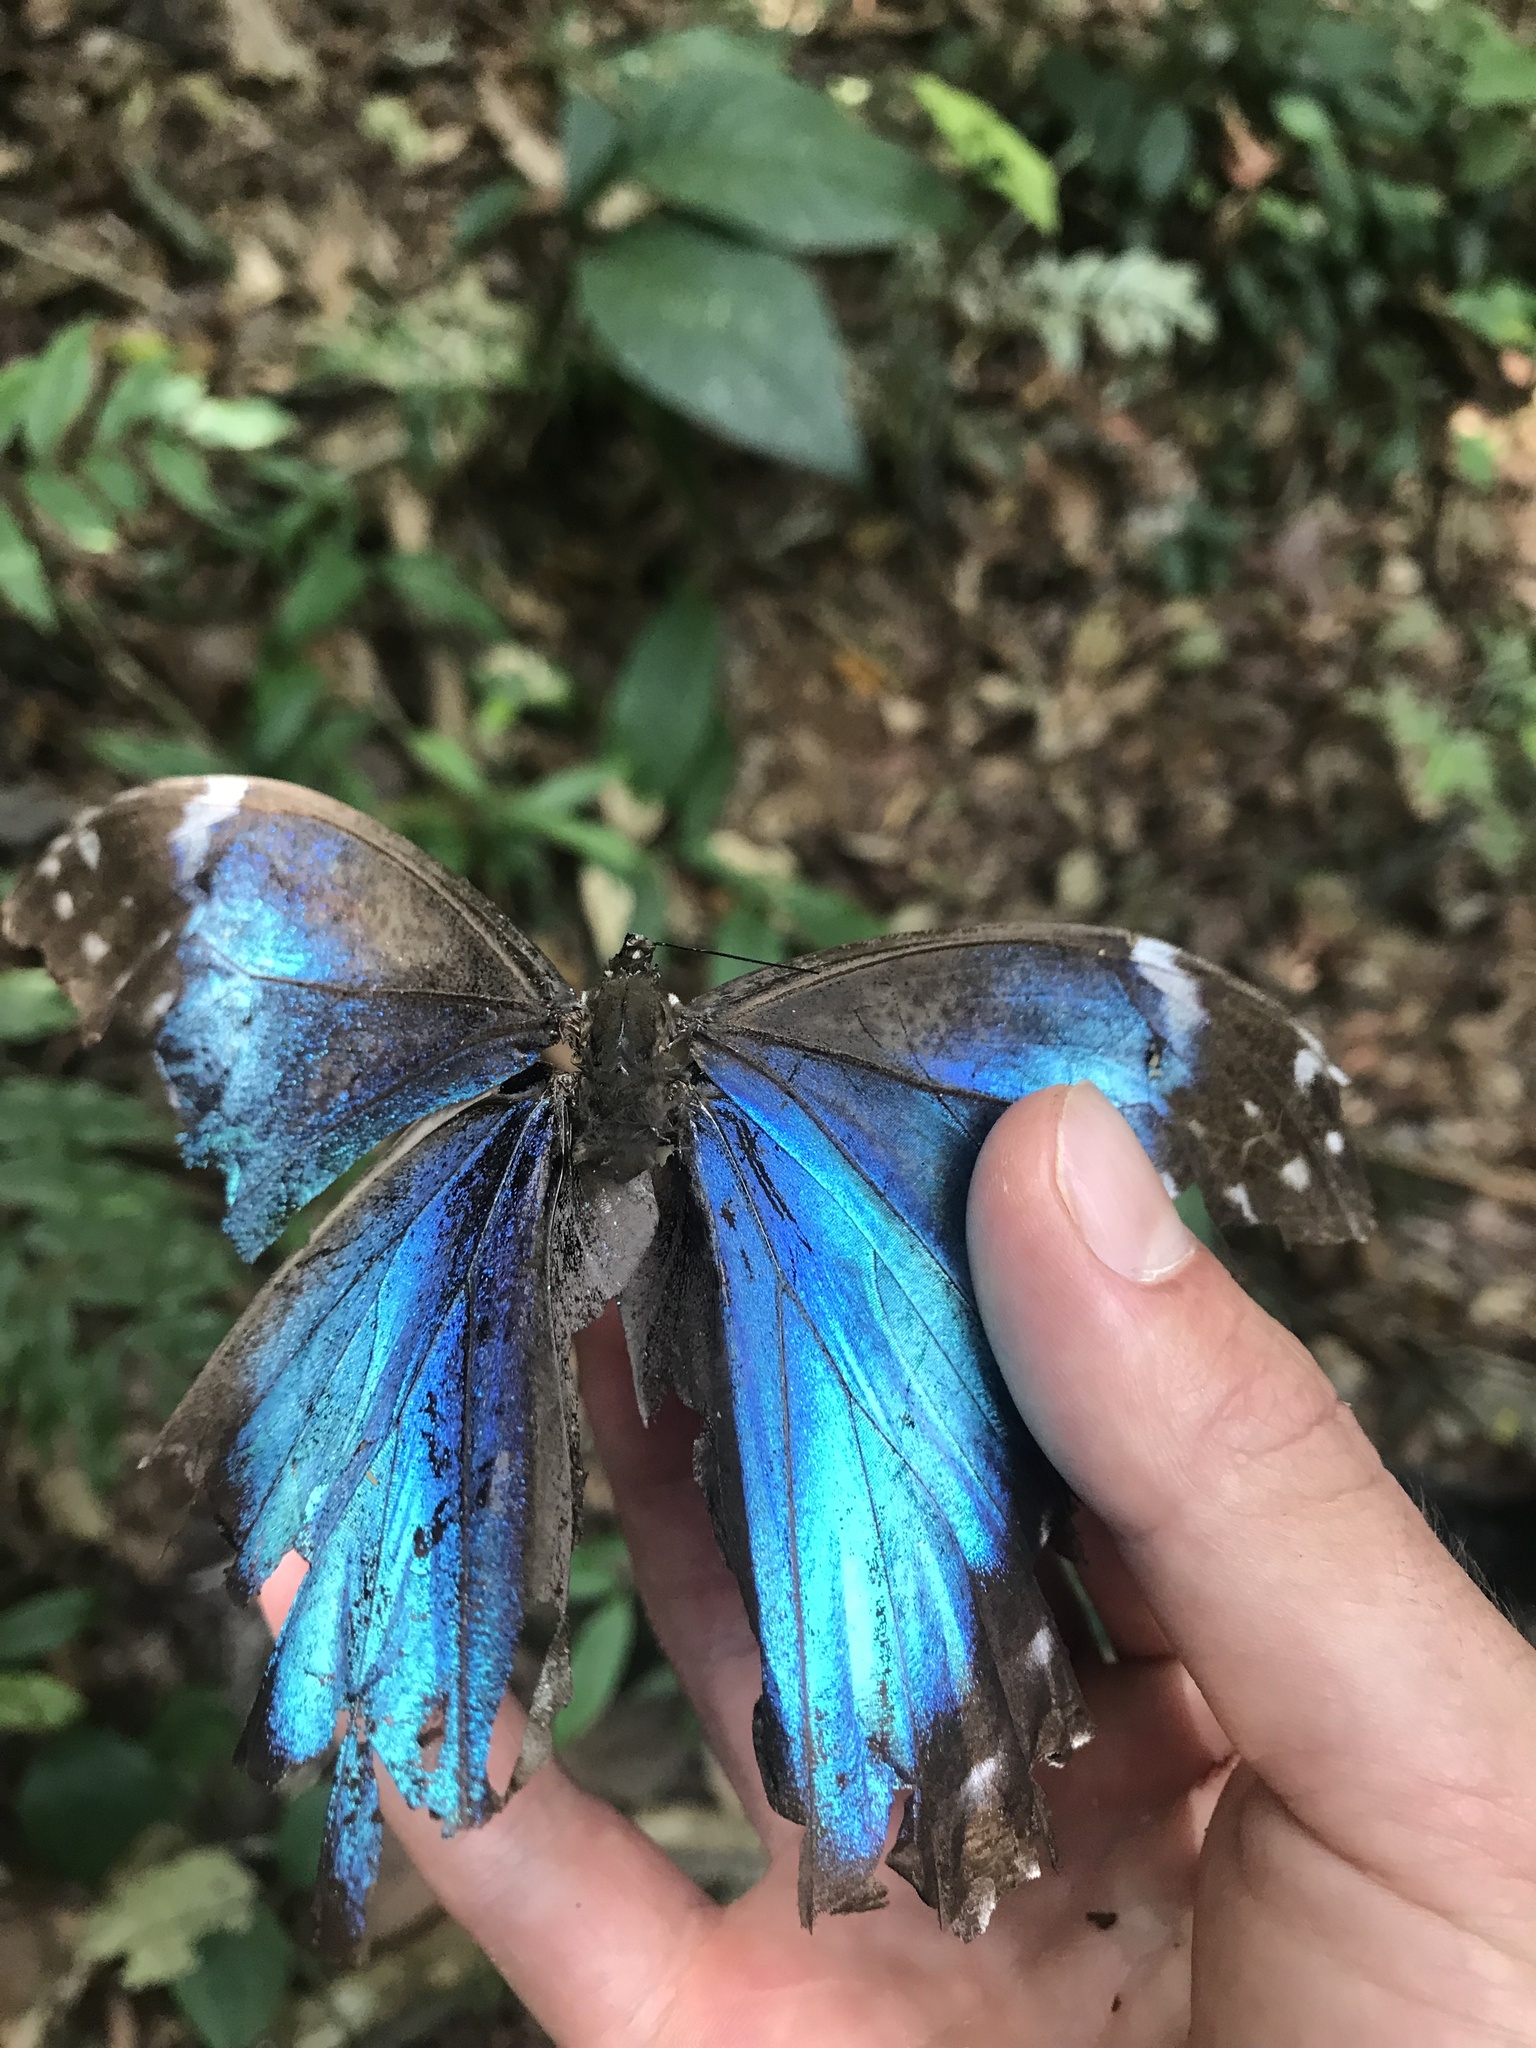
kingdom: Animalia
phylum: Arthropoda
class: Insecta
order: Lepidoptera
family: Nymphalidae
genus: Morpho
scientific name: Morpho menelaus
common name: Menelaus morpho
